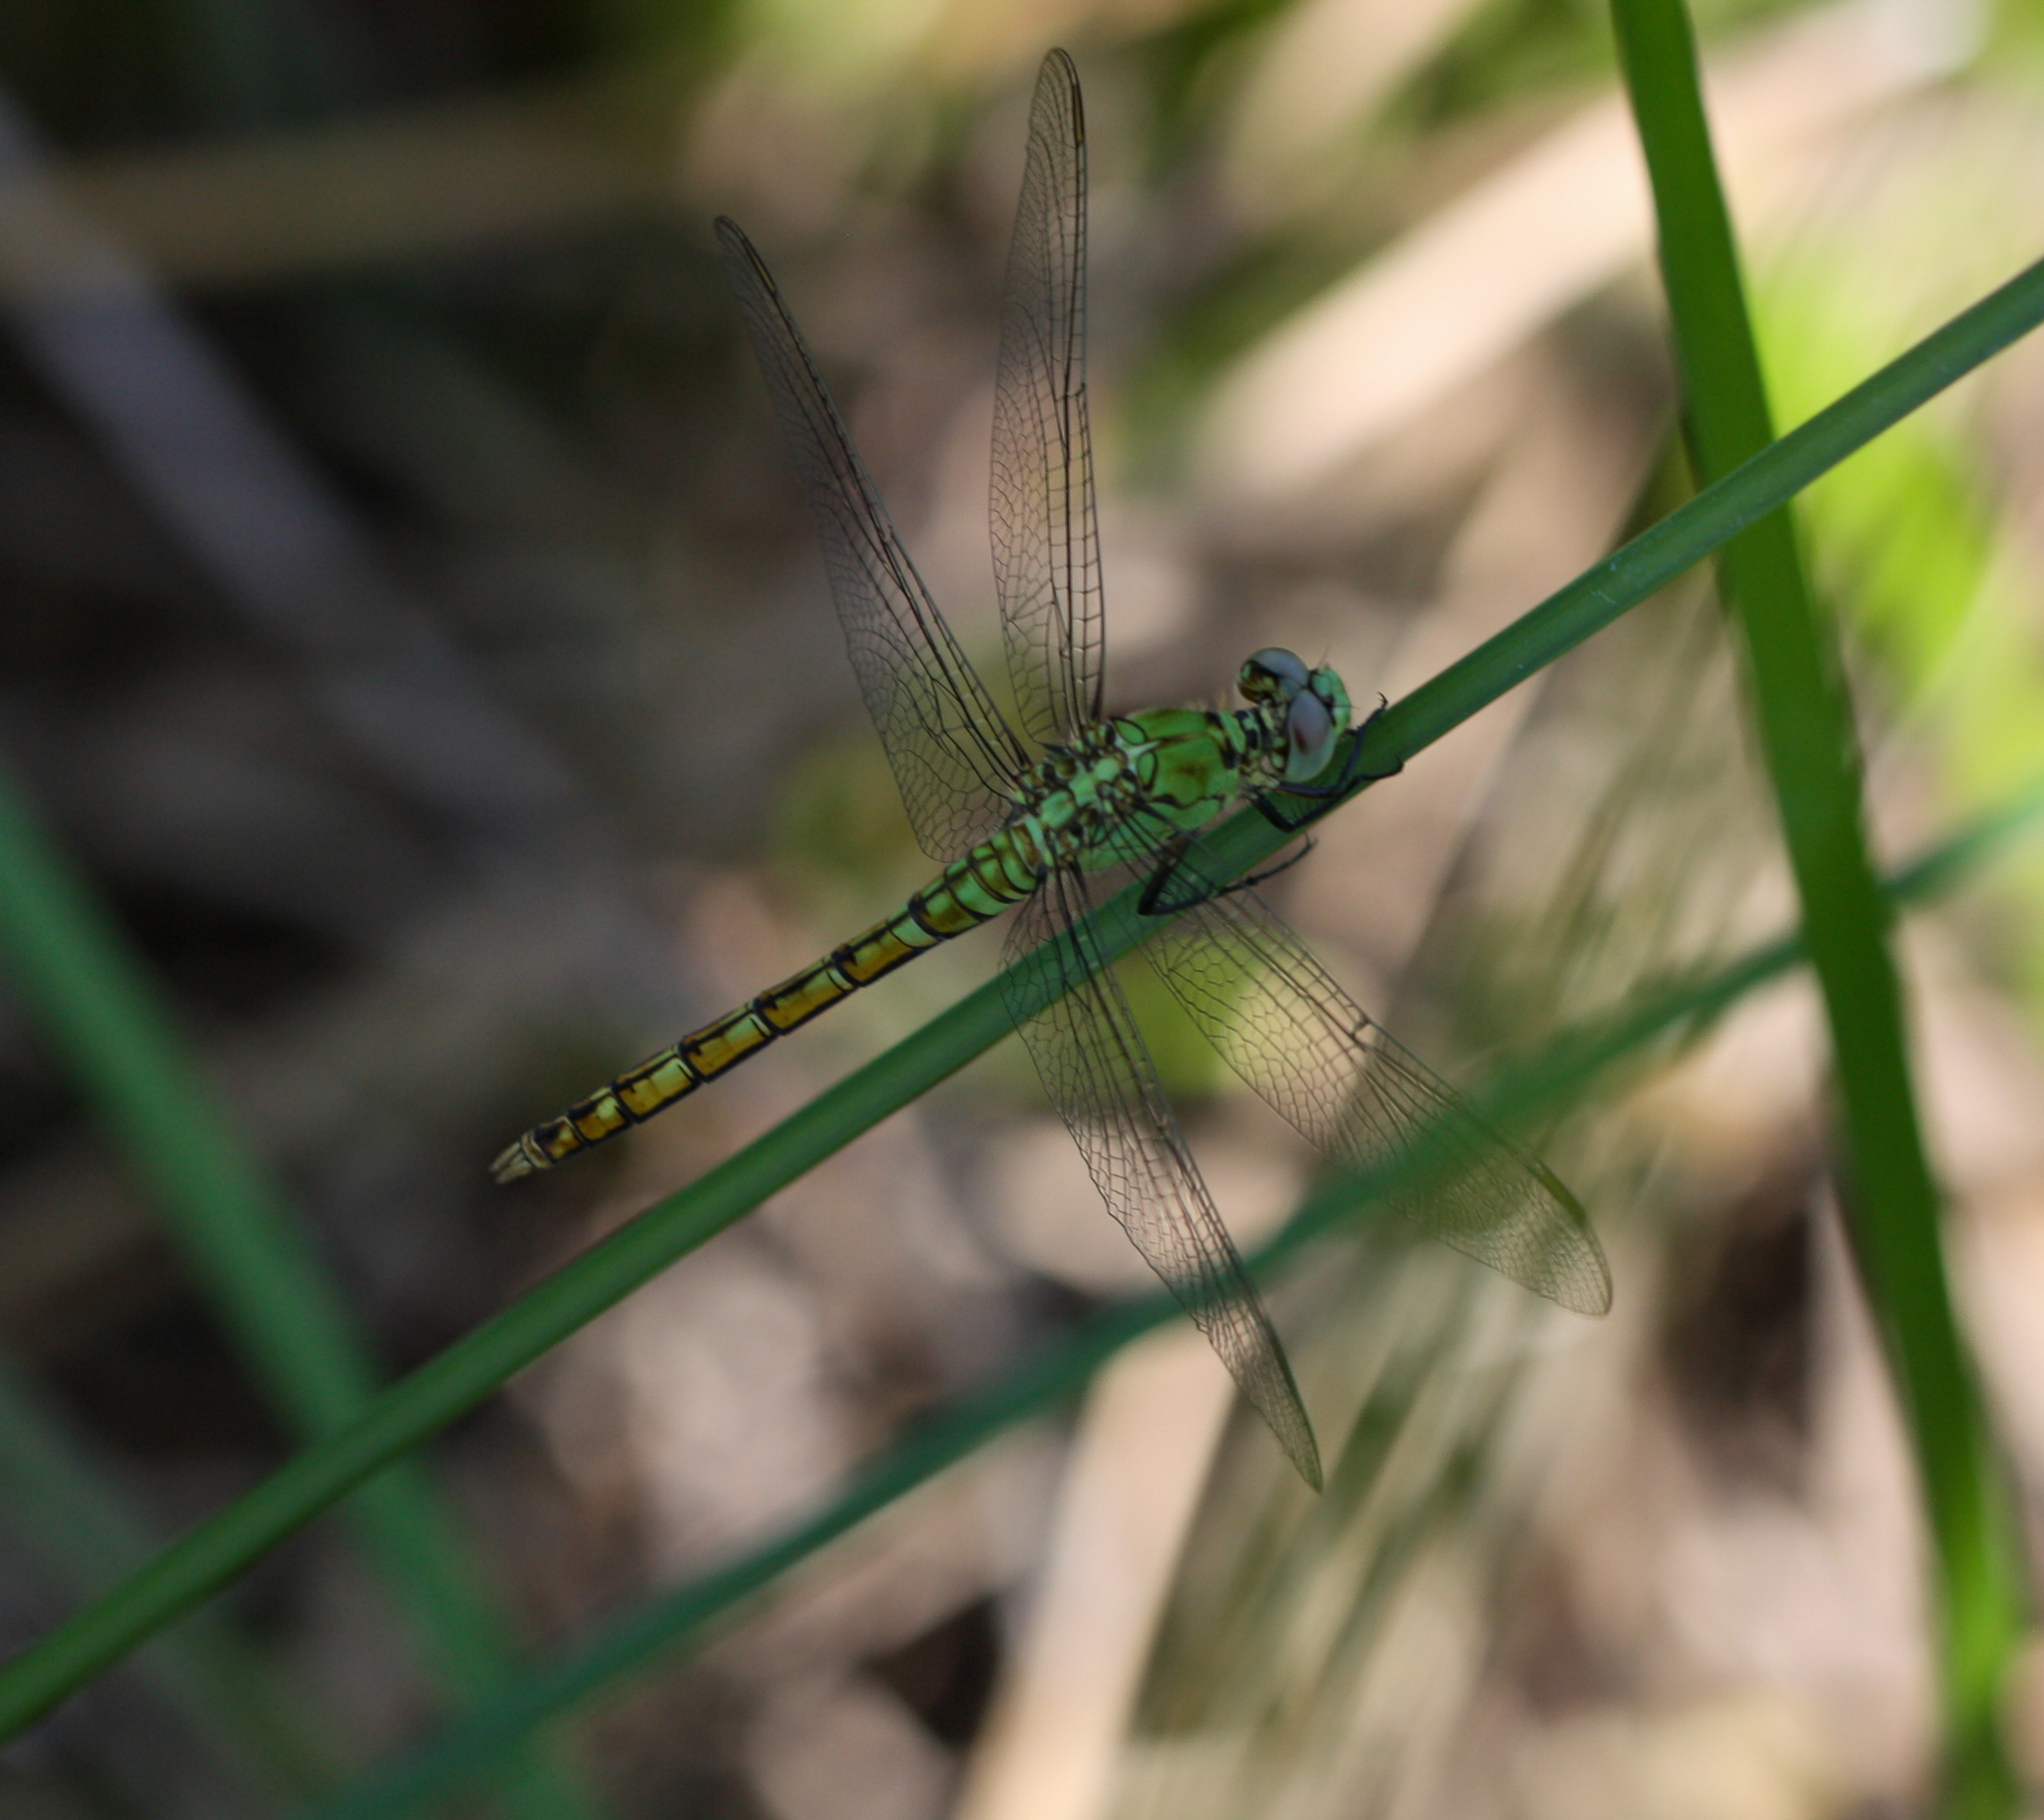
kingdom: Animalia
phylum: Arthropoda
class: Insecta
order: Odonata
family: Libellulidae
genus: Erythemis
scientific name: Erythemis collocata
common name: Western pondhawk
